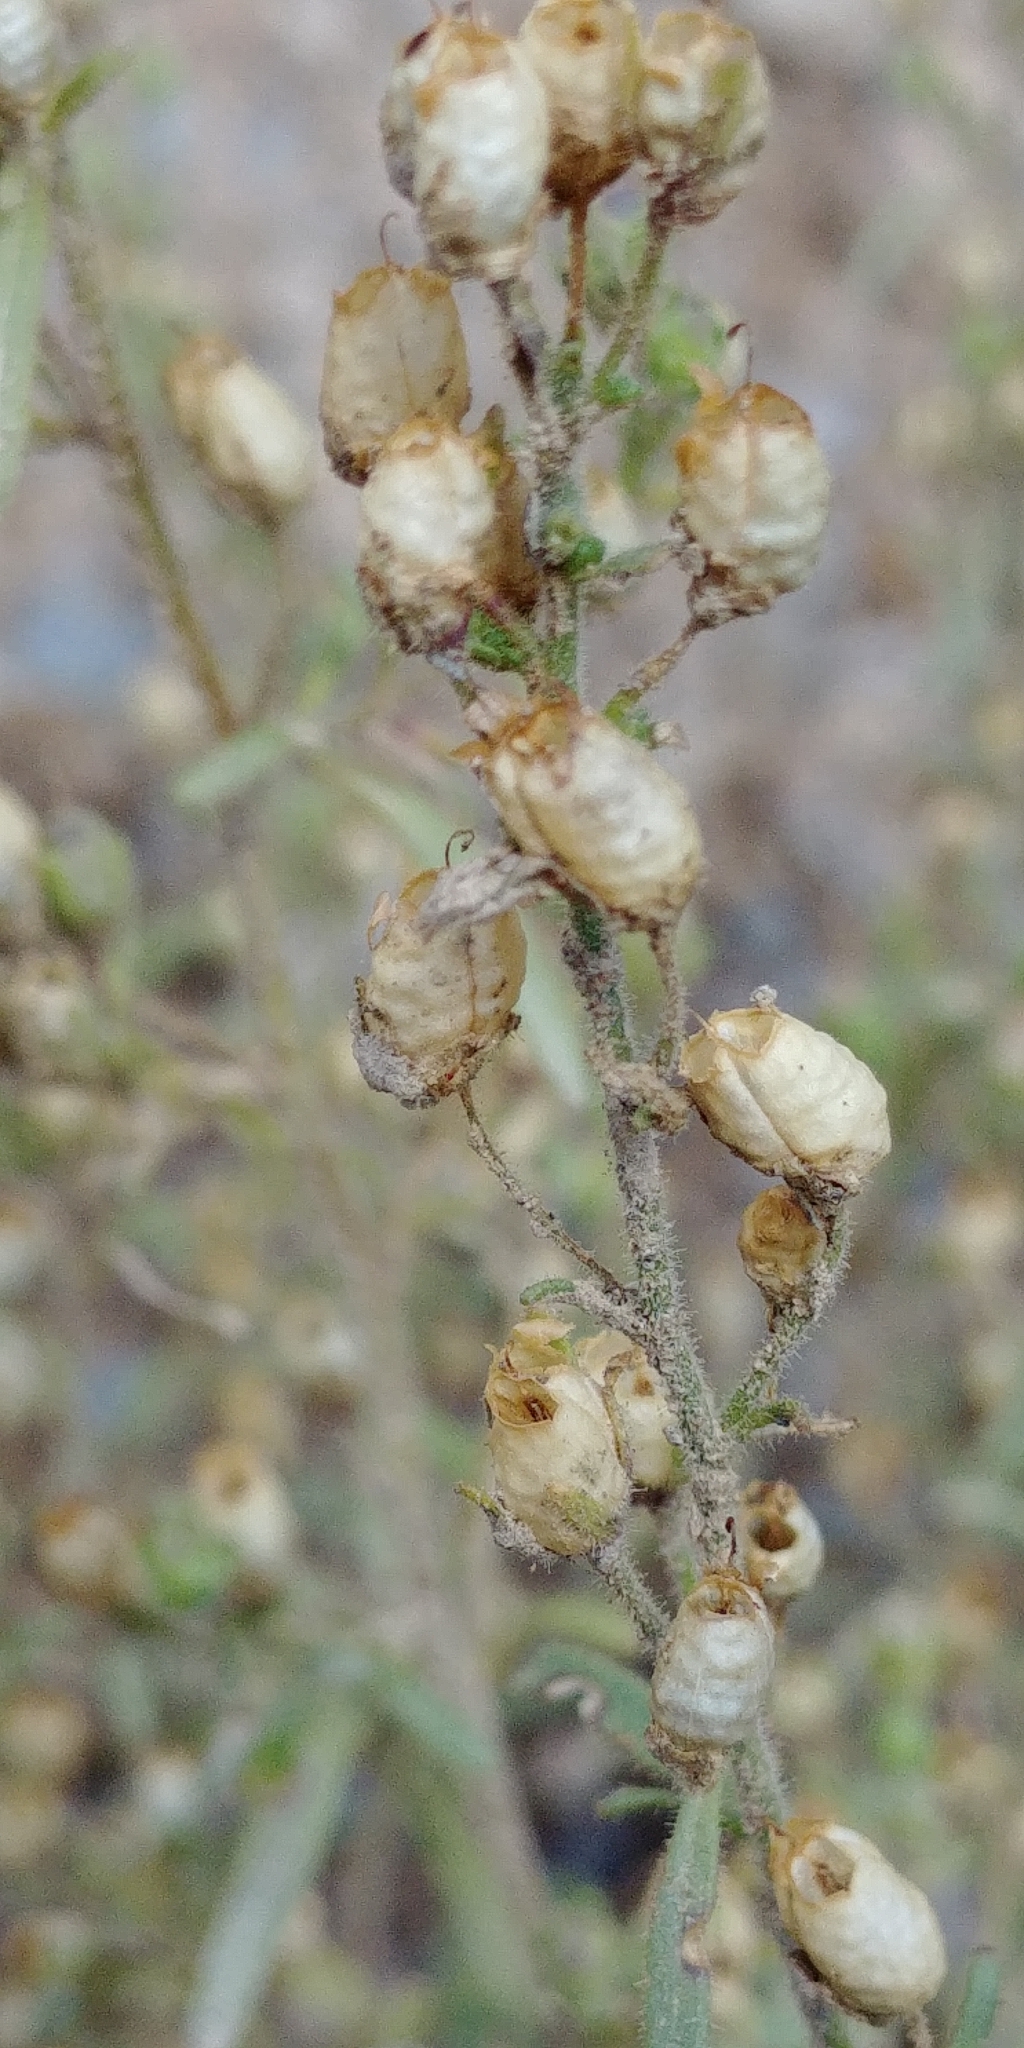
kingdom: Plantae
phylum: Tracheophyta
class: Magnoliopsida
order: Lamiales
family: Plantaginaceae
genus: Chaenorhinum
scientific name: Chaenorhinum minus
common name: Dwarf snapdragon
